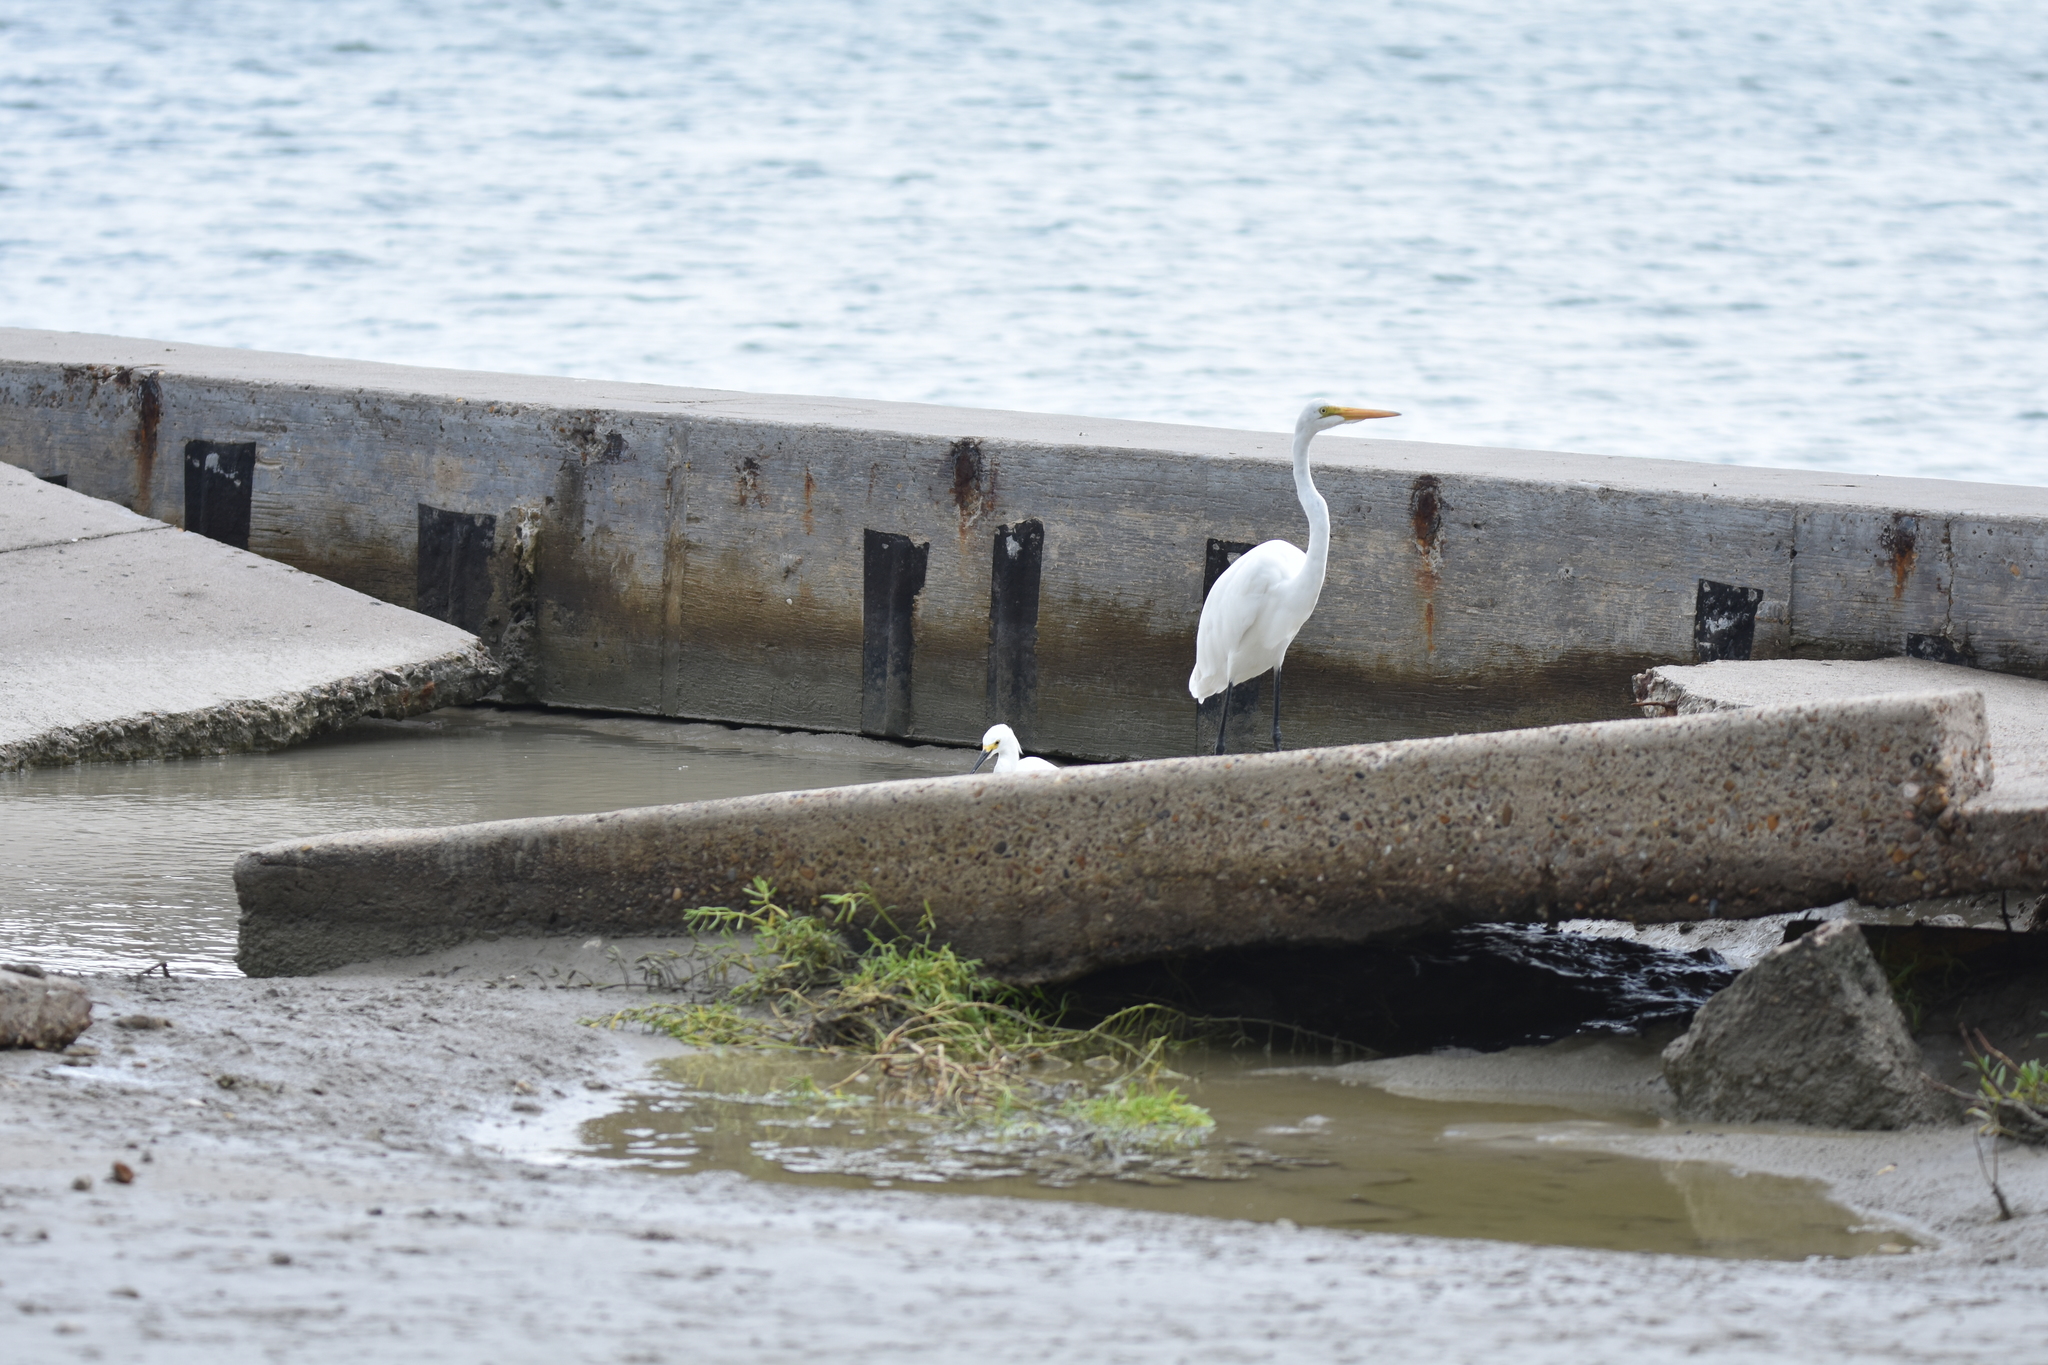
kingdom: Animalia
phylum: Chordata
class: Aves
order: Pelecaniformes
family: Ardeidae
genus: Ardea
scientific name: Ardea alba
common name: Great egret
